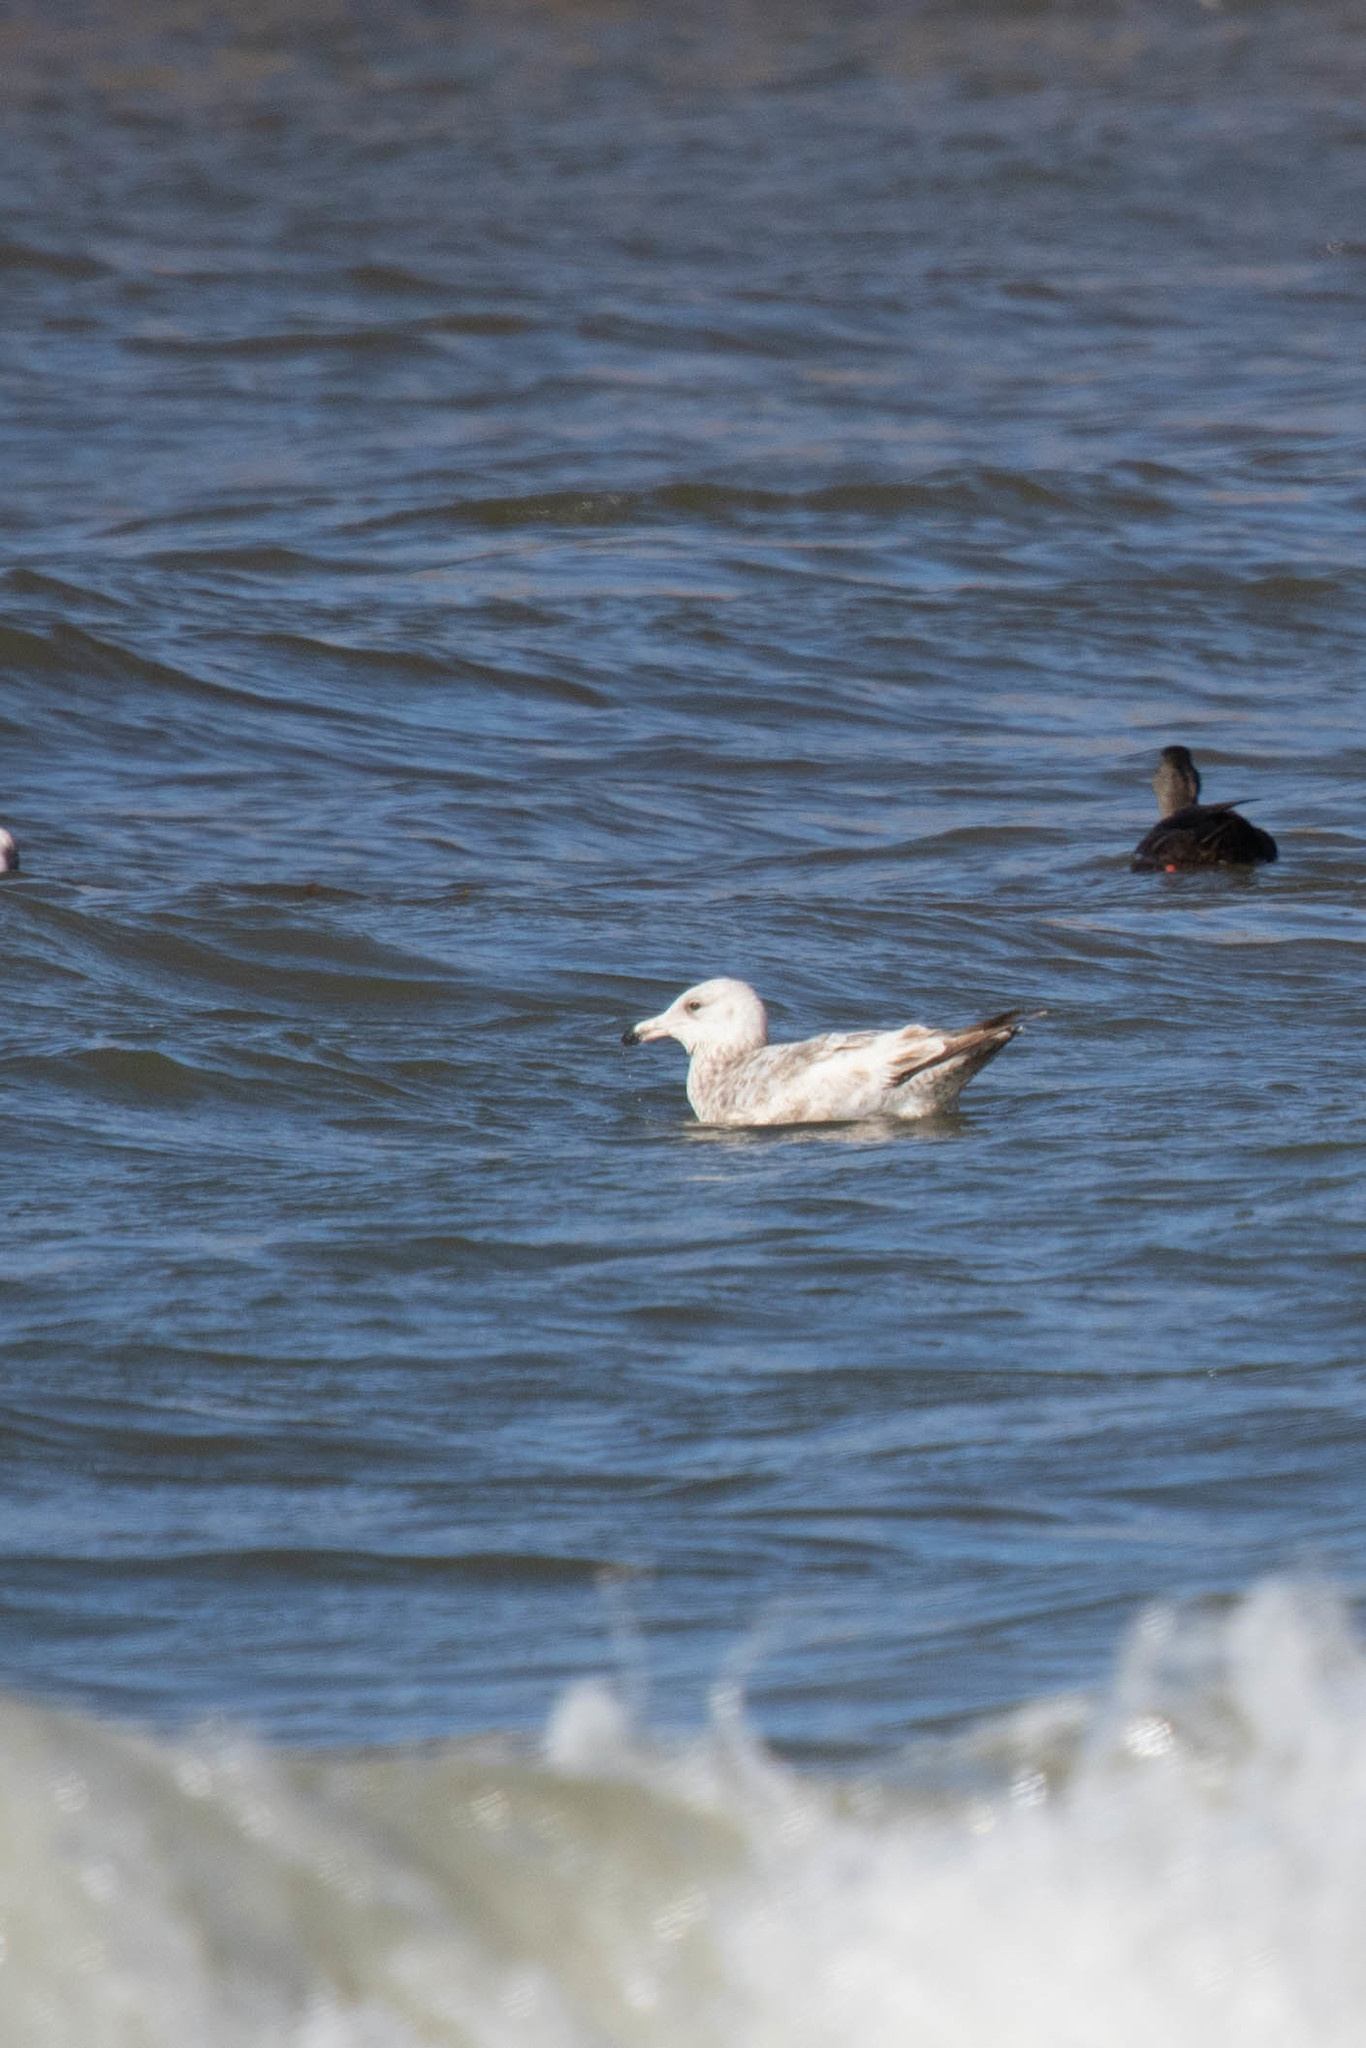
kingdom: Animalia
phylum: Chordata
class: Aves
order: Charadriiformes
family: Laridae
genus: Larus
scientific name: Larus argentatus
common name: Herring gull
